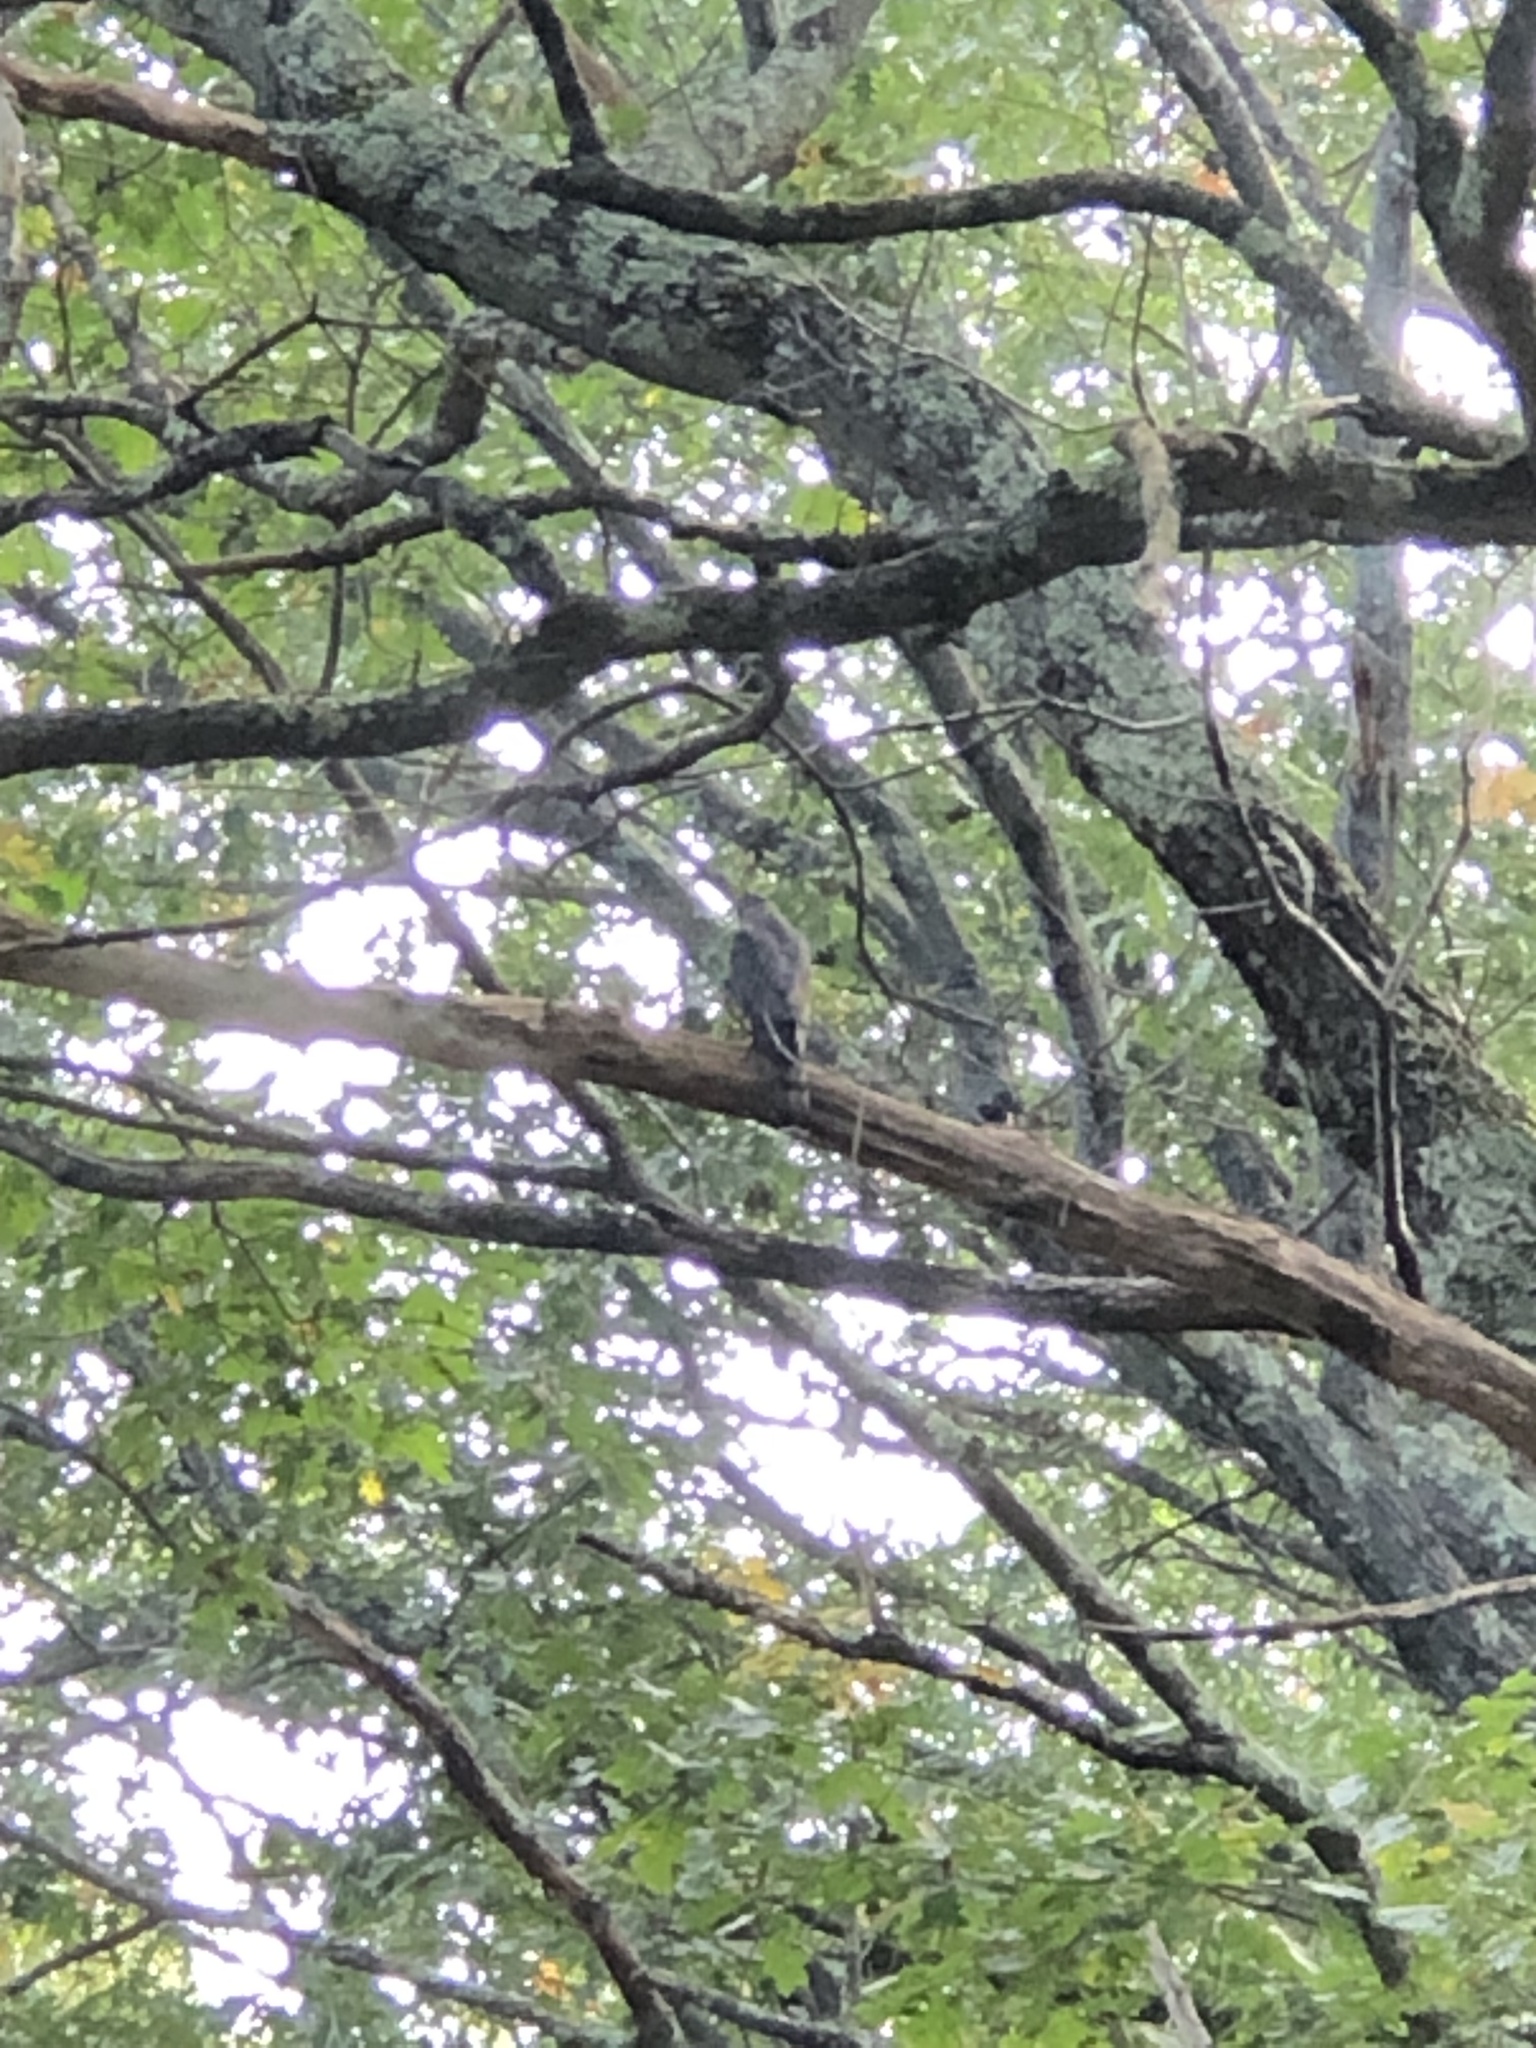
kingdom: Animalia
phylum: Chordata
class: Aves
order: Accipitriformes
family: Accipitridae
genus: Accipiter
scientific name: Accipiter cooperii
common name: Cooper's hawk
